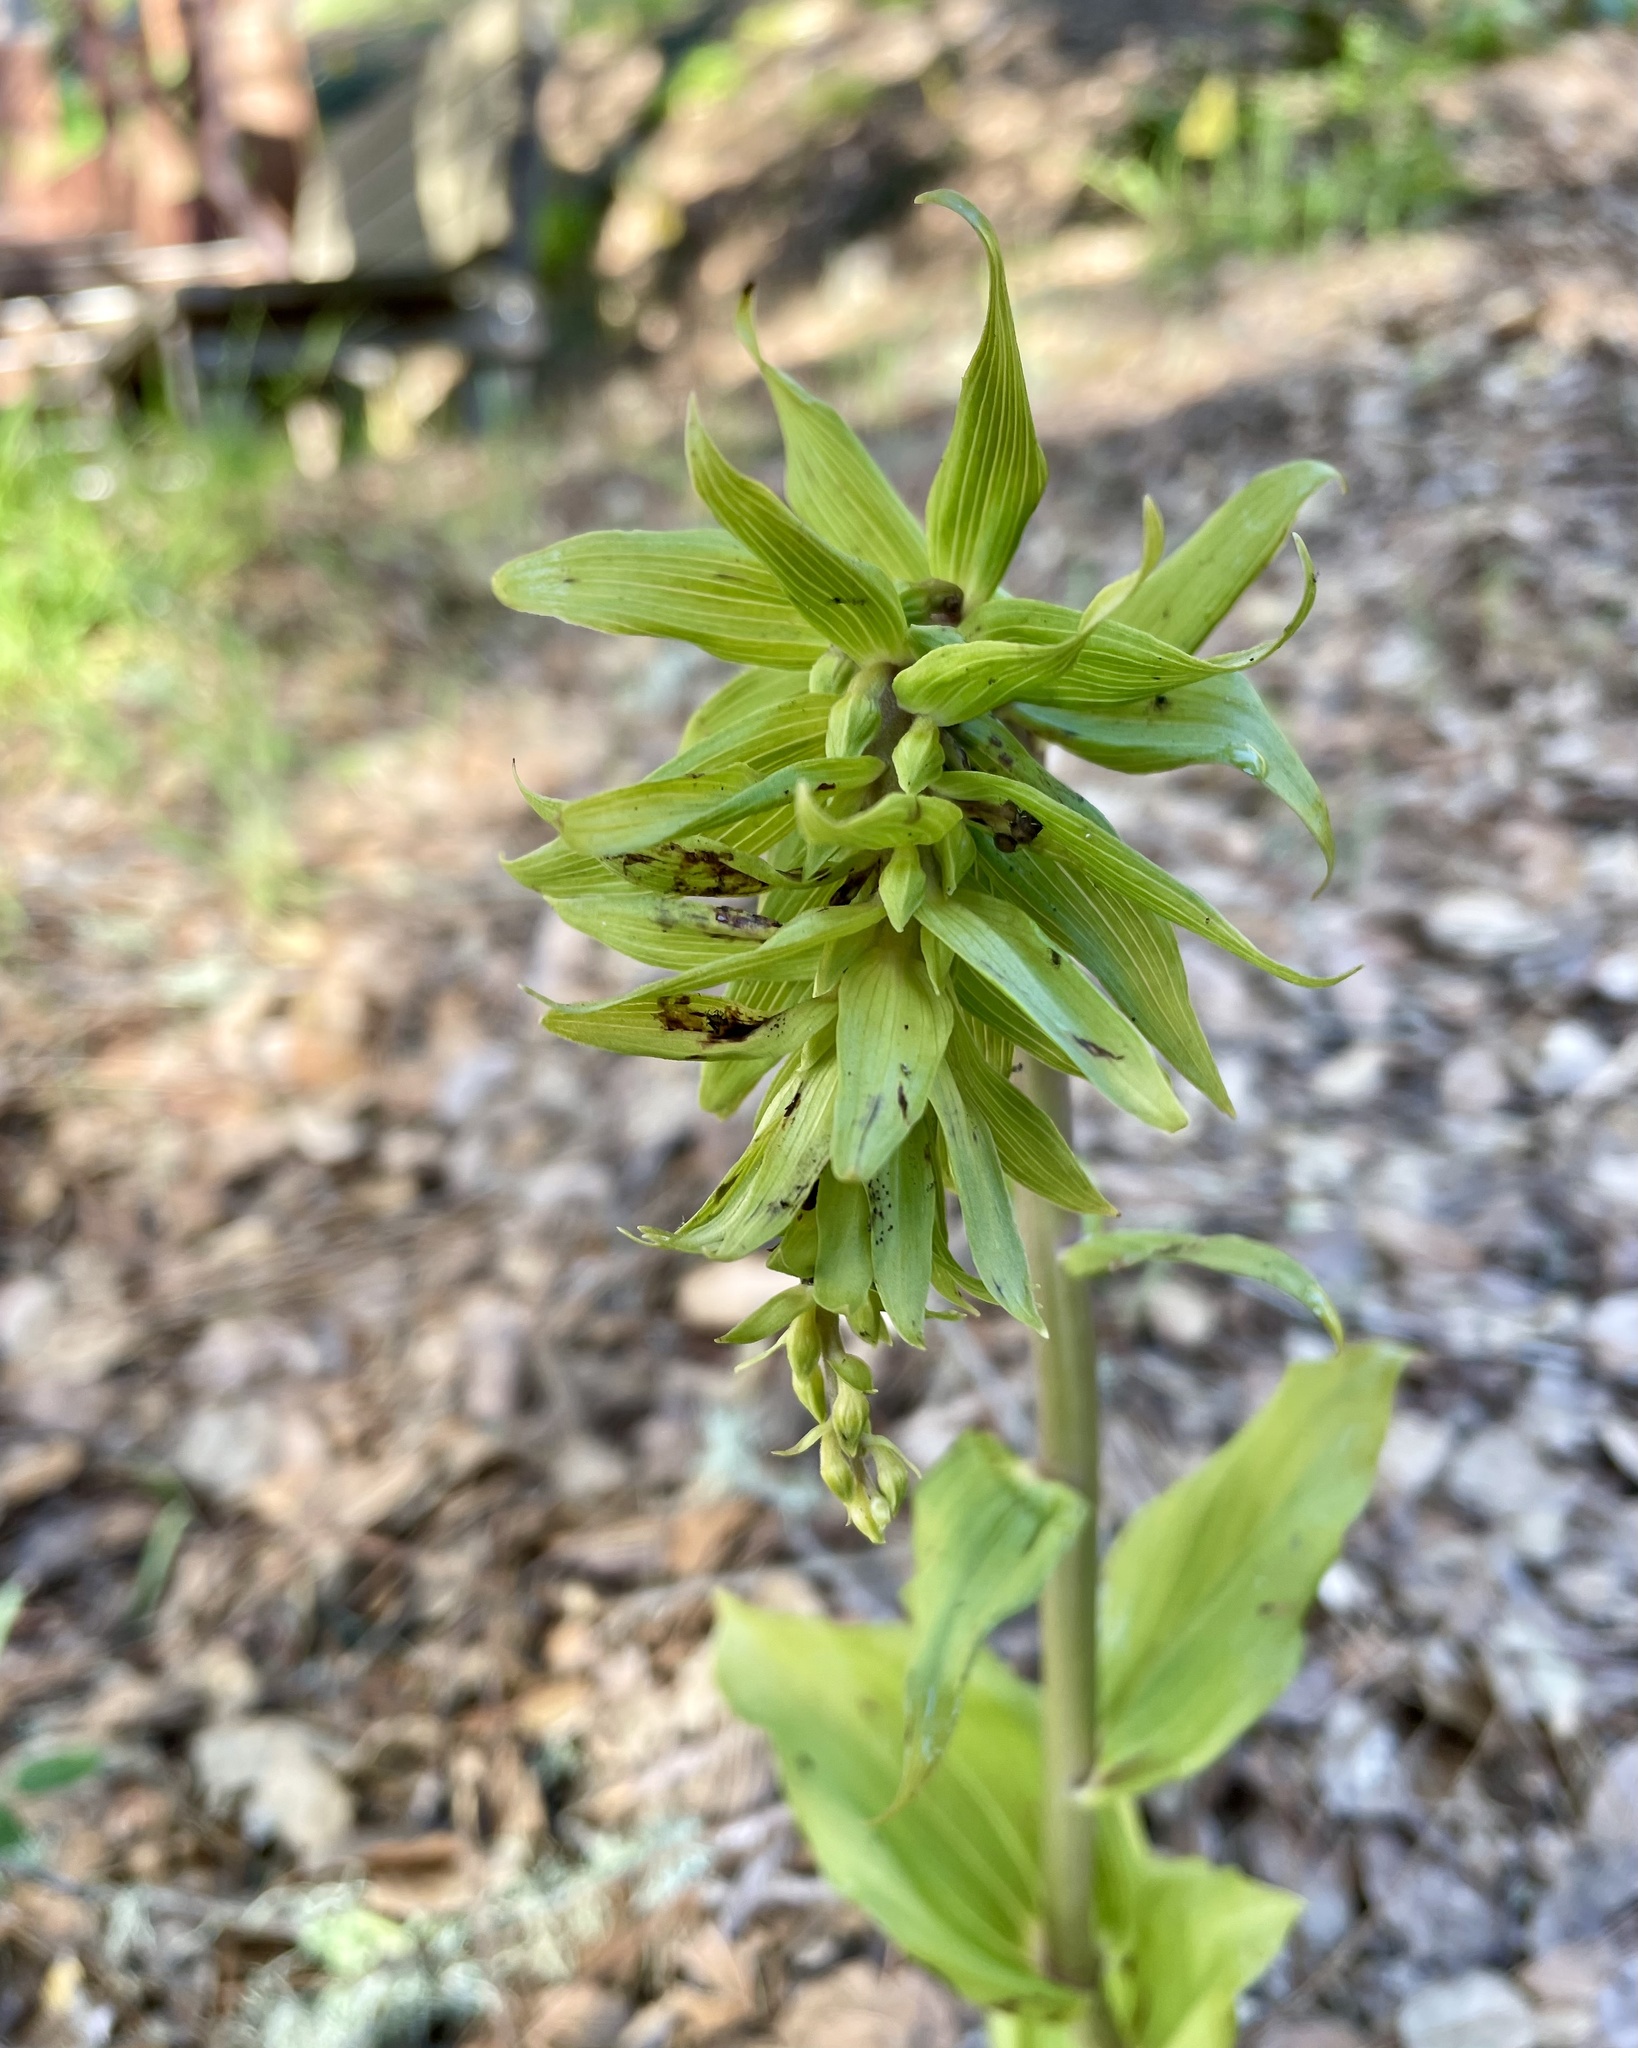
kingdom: Plantae
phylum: Tracheophyta
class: Liliopsida
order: Asparagales
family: Orchidaceae
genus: Epipactis
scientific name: Epipactis helleborine
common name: Broad-leaved helleborine
